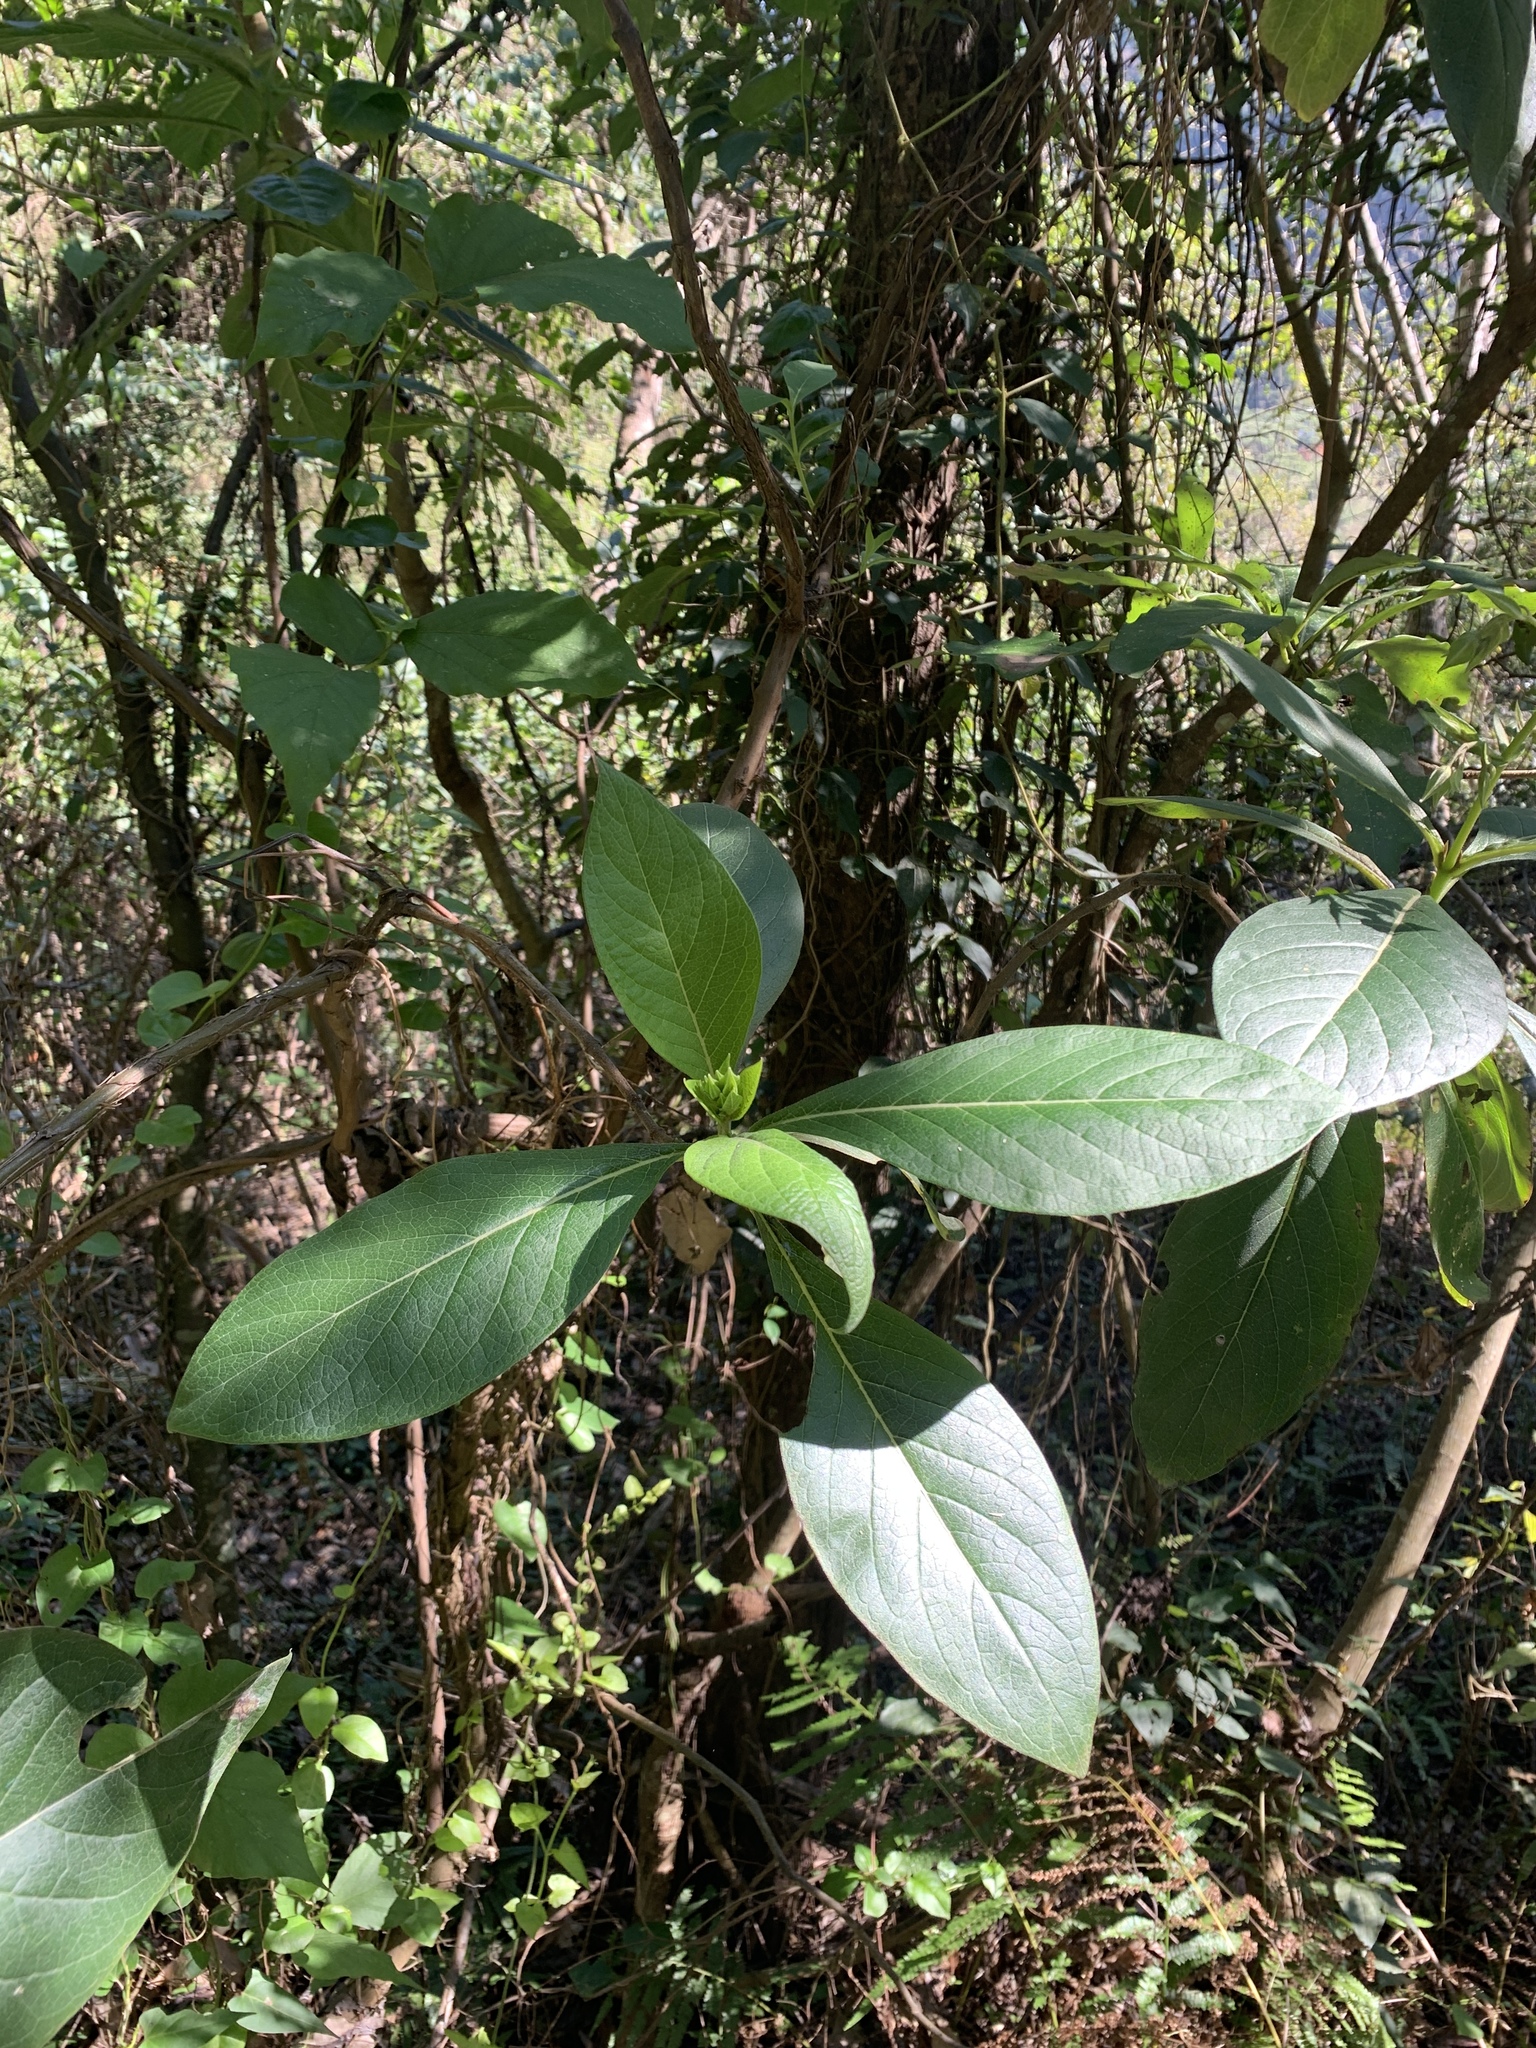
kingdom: Plantae
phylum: Tracheophyta
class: Magnoliopsida
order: Boraginales
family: Boraginaceae
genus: Trichodesma
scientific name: Trichodesma calycosum
